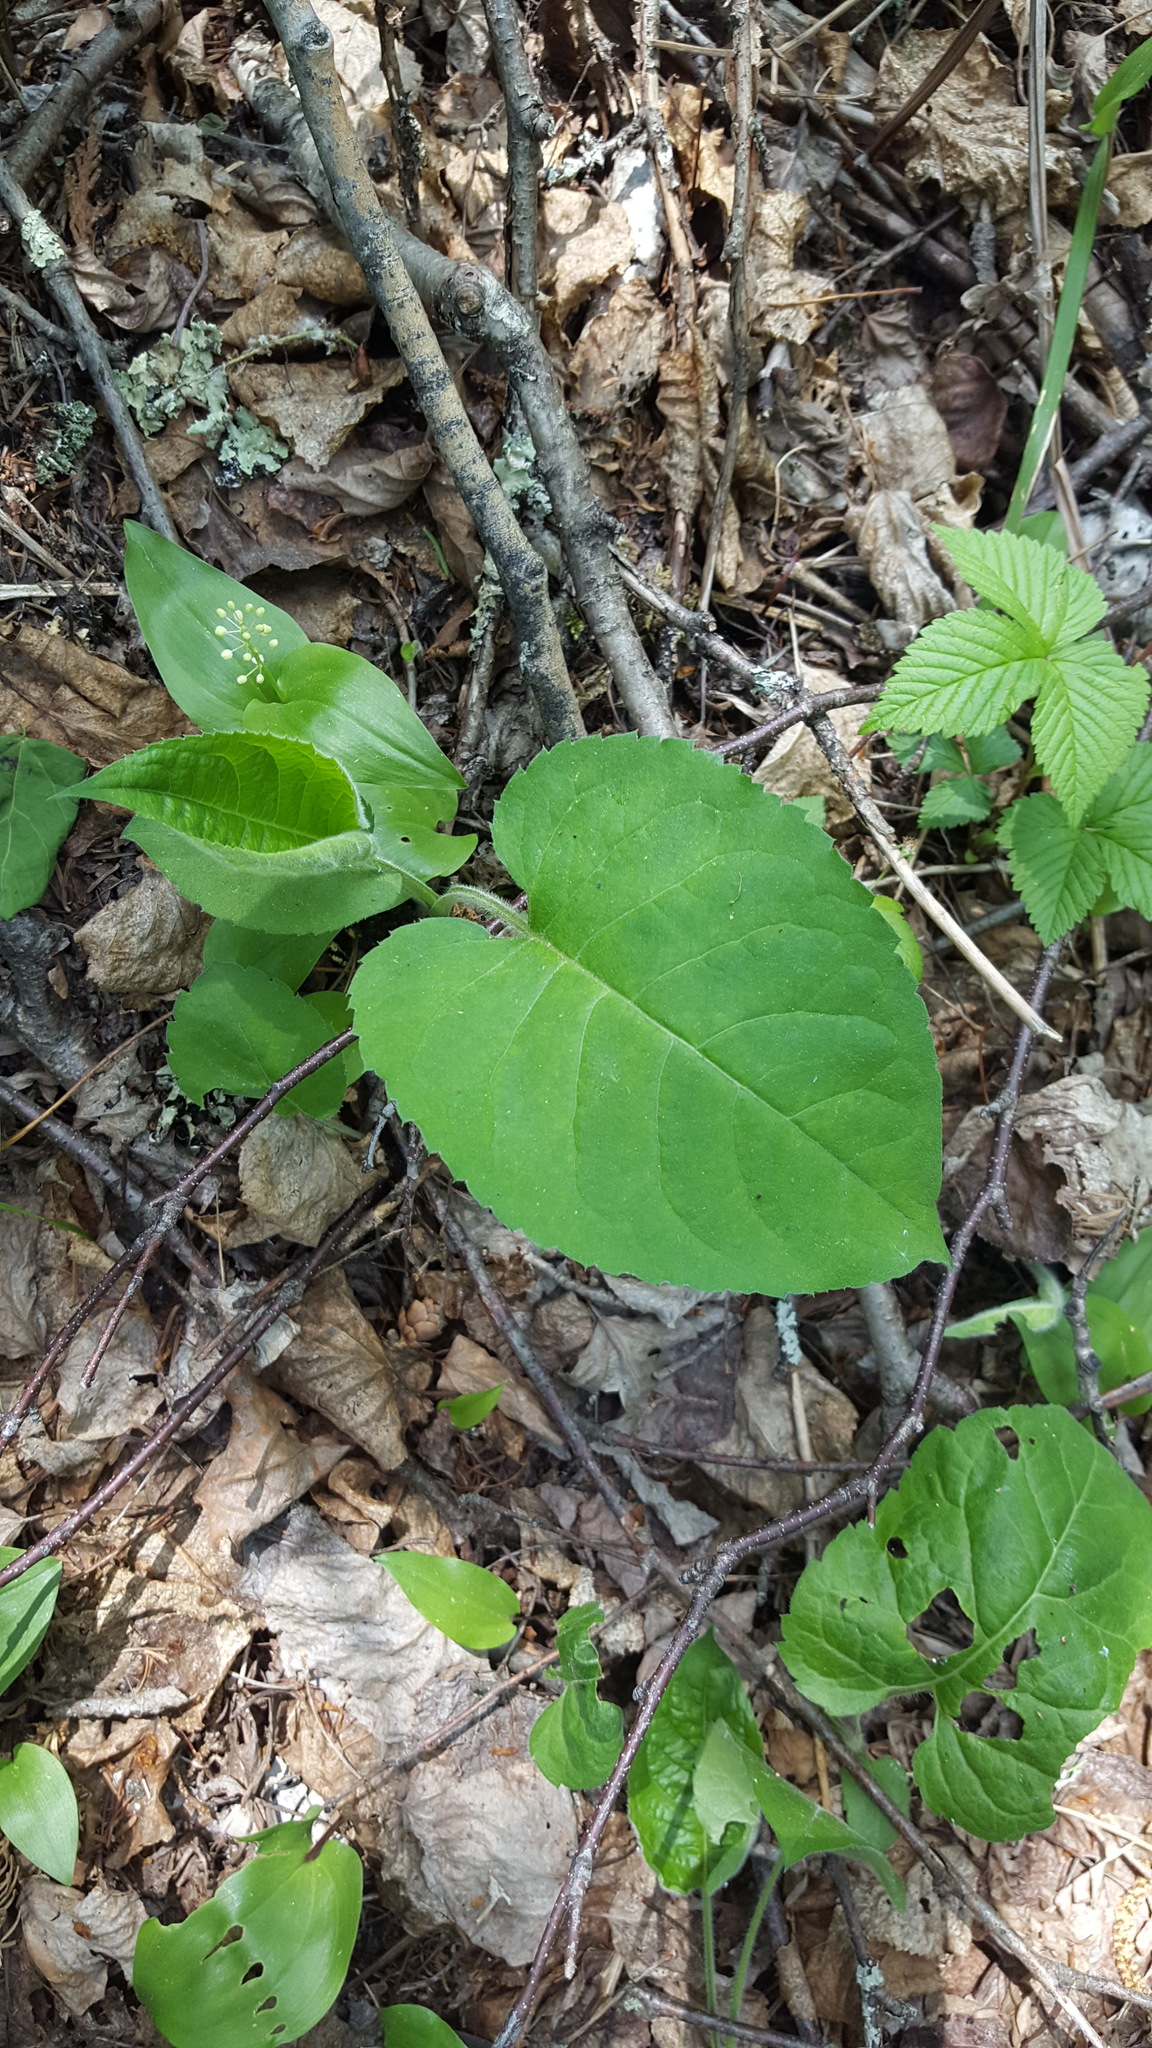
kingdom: Plantae
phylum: Tracheophyta
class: Magnoliopsida
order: Asterales
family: Asteraceae
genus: Eurybia
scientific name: Eurybia macrophylla
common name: Big-leaved aster
